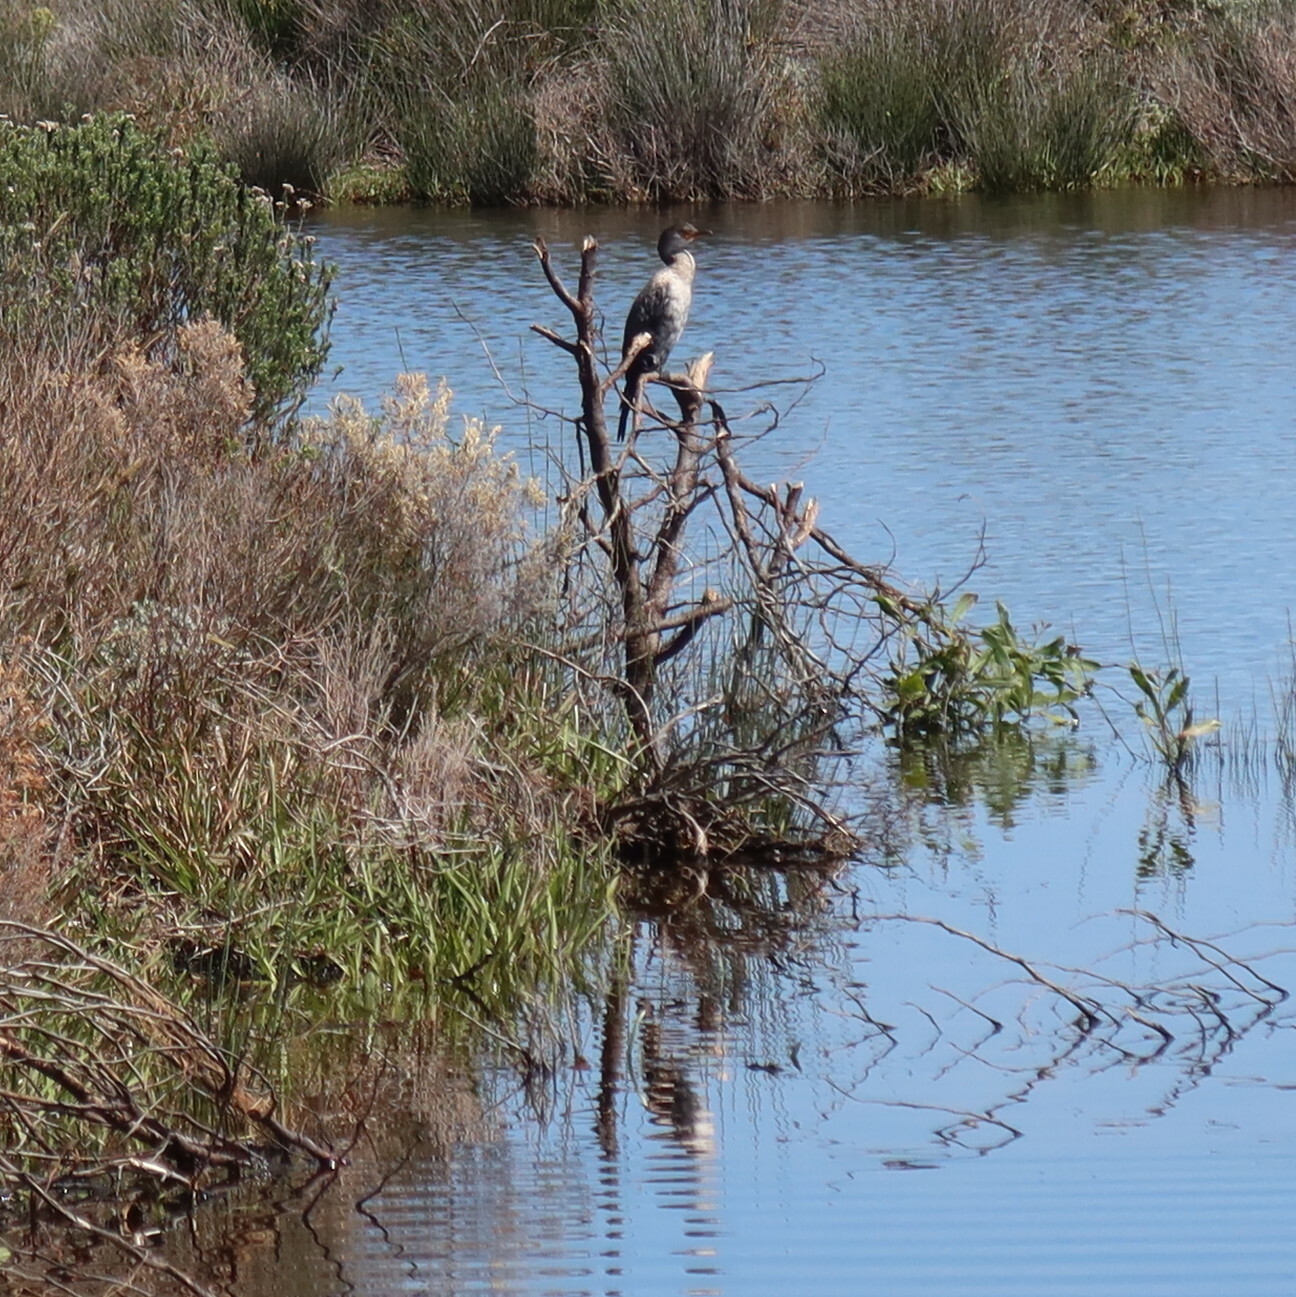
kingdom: Animalia
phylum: Chordata
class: Aves
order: Suliformes
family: Phalacrocoracidae
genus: Microcarbo
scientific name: Microcarbo africanus
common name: Long-tailed cormorant
